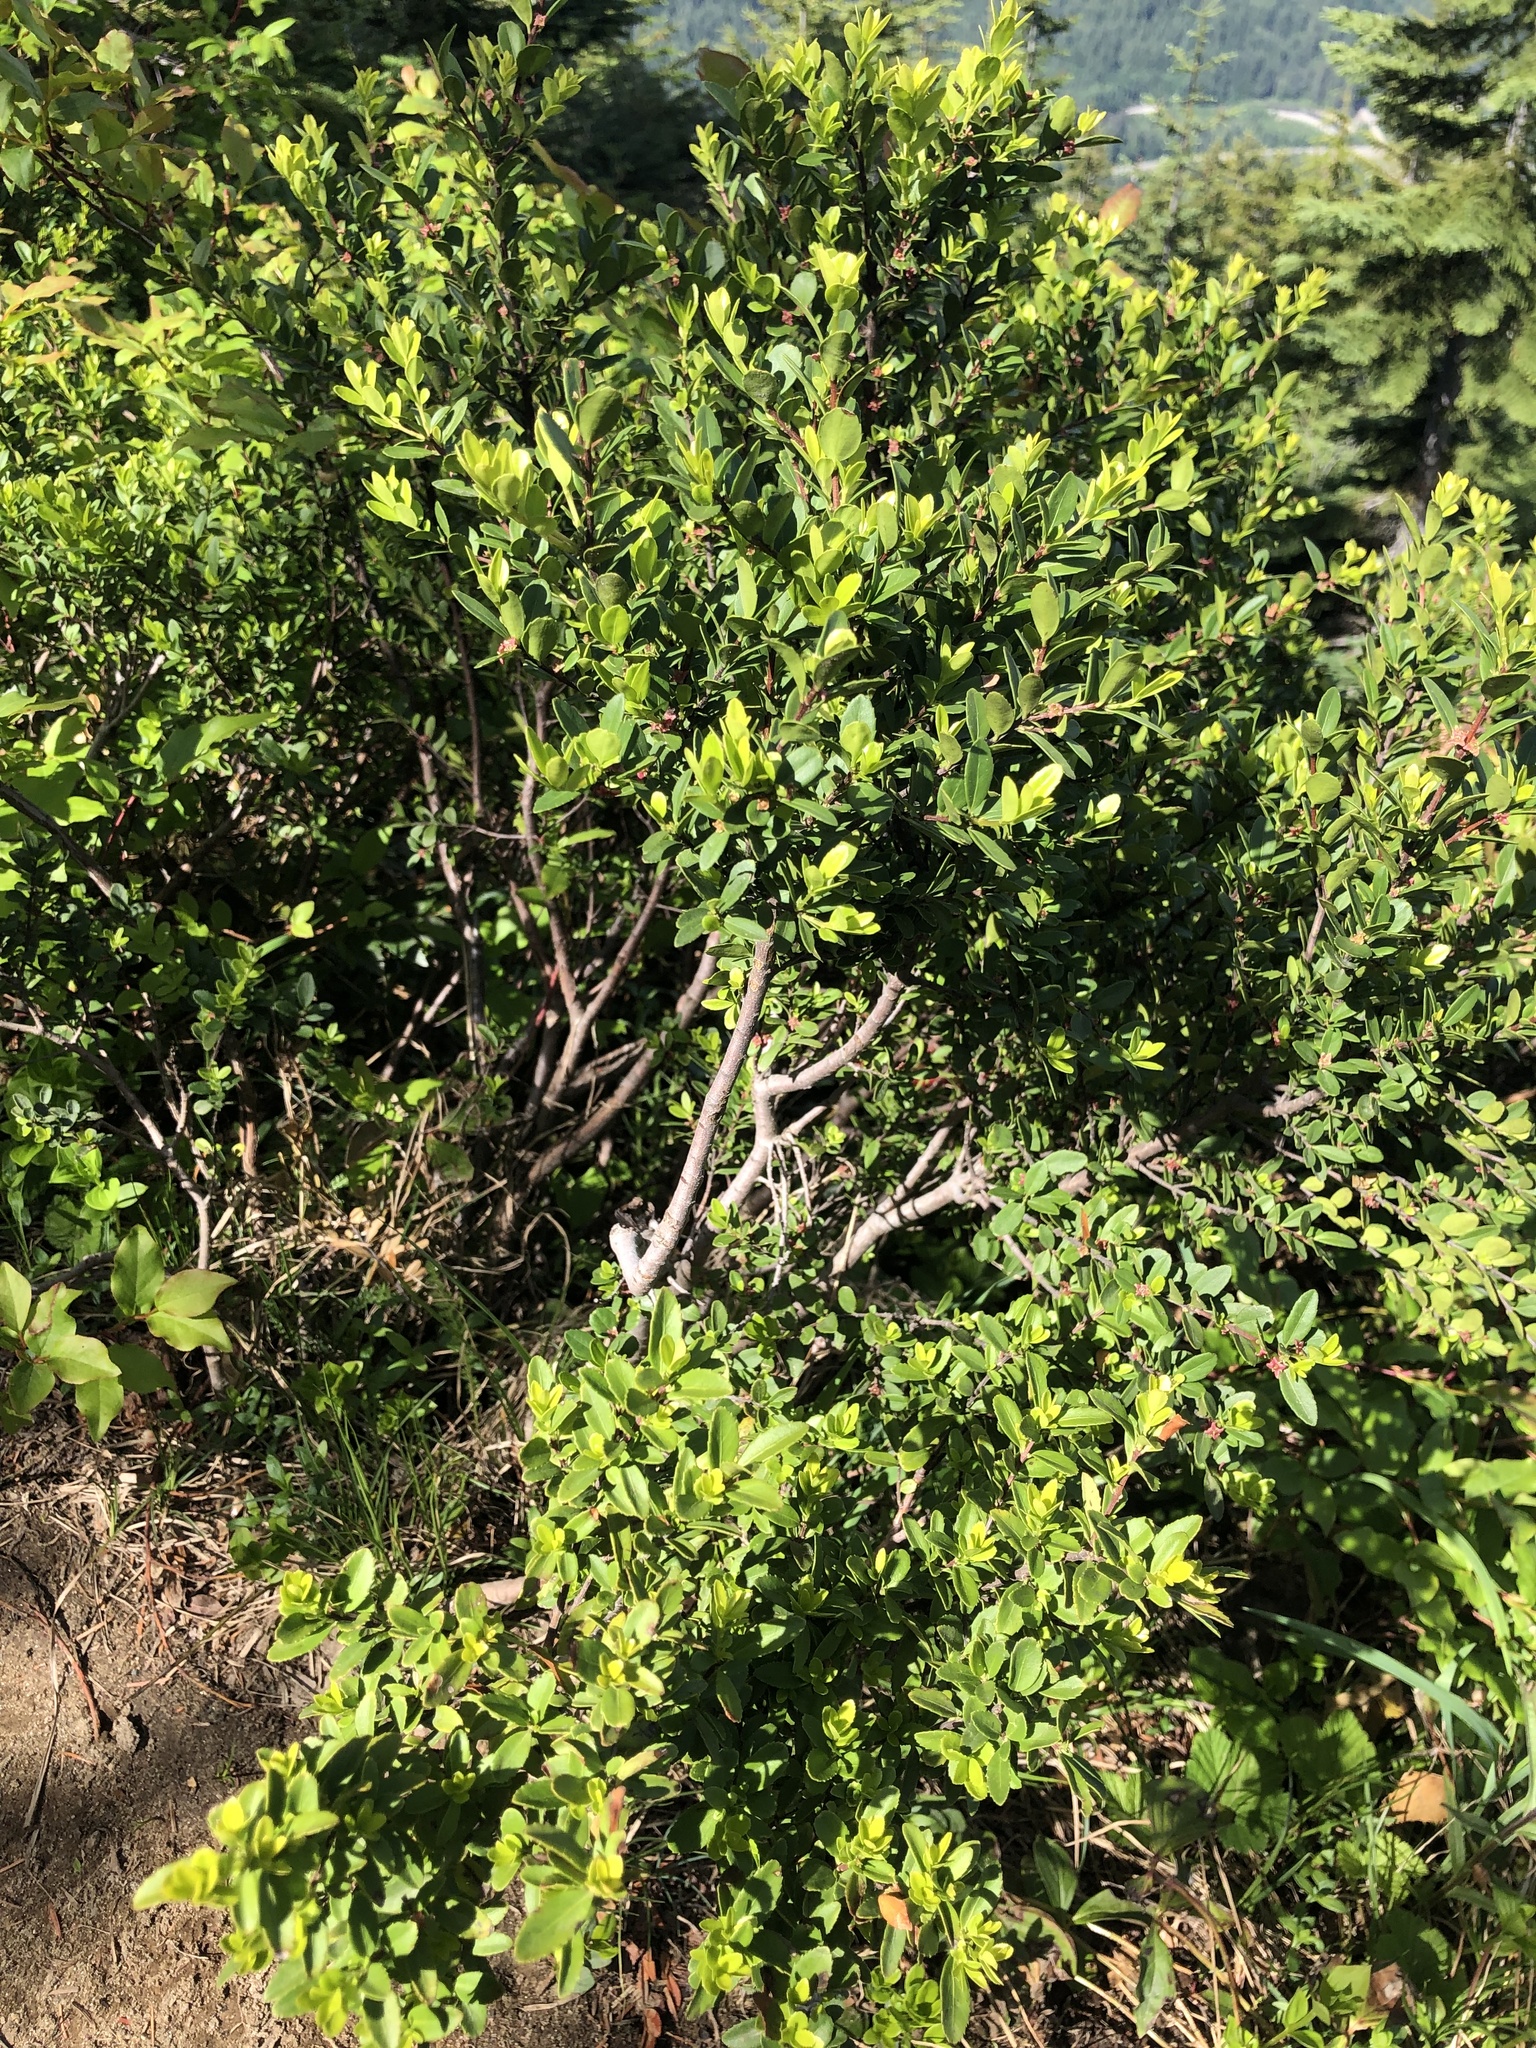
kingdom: Plantae
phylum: Tracheophyta
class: Magnoliopsida
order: Celastrales
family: Celastraceae
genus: Paxistima
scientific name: Paxistima myrsinites
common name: Mountain-lover
